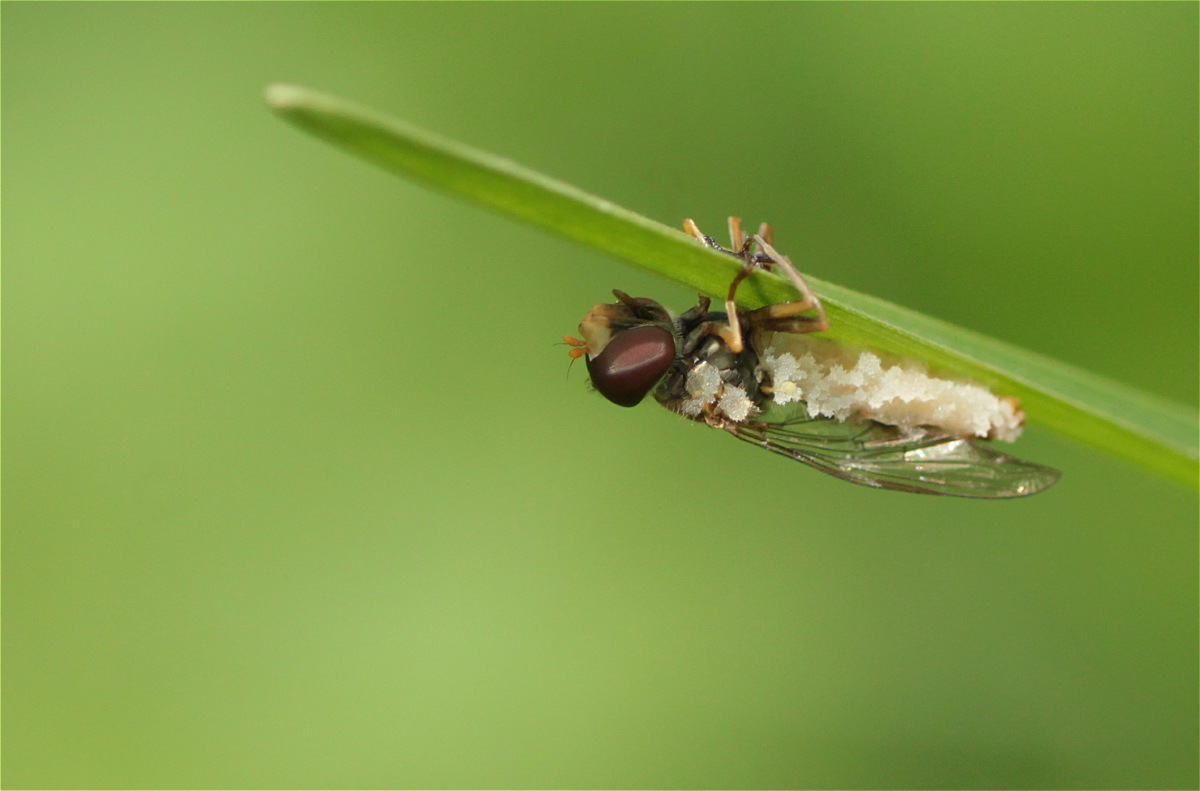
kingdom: Fungi
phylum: Entomophthoromycota
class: Entomophthoromycetes
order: Entomophthorales
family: Entomophthoraceae
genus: Entomophthora
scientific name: Entomophthora
